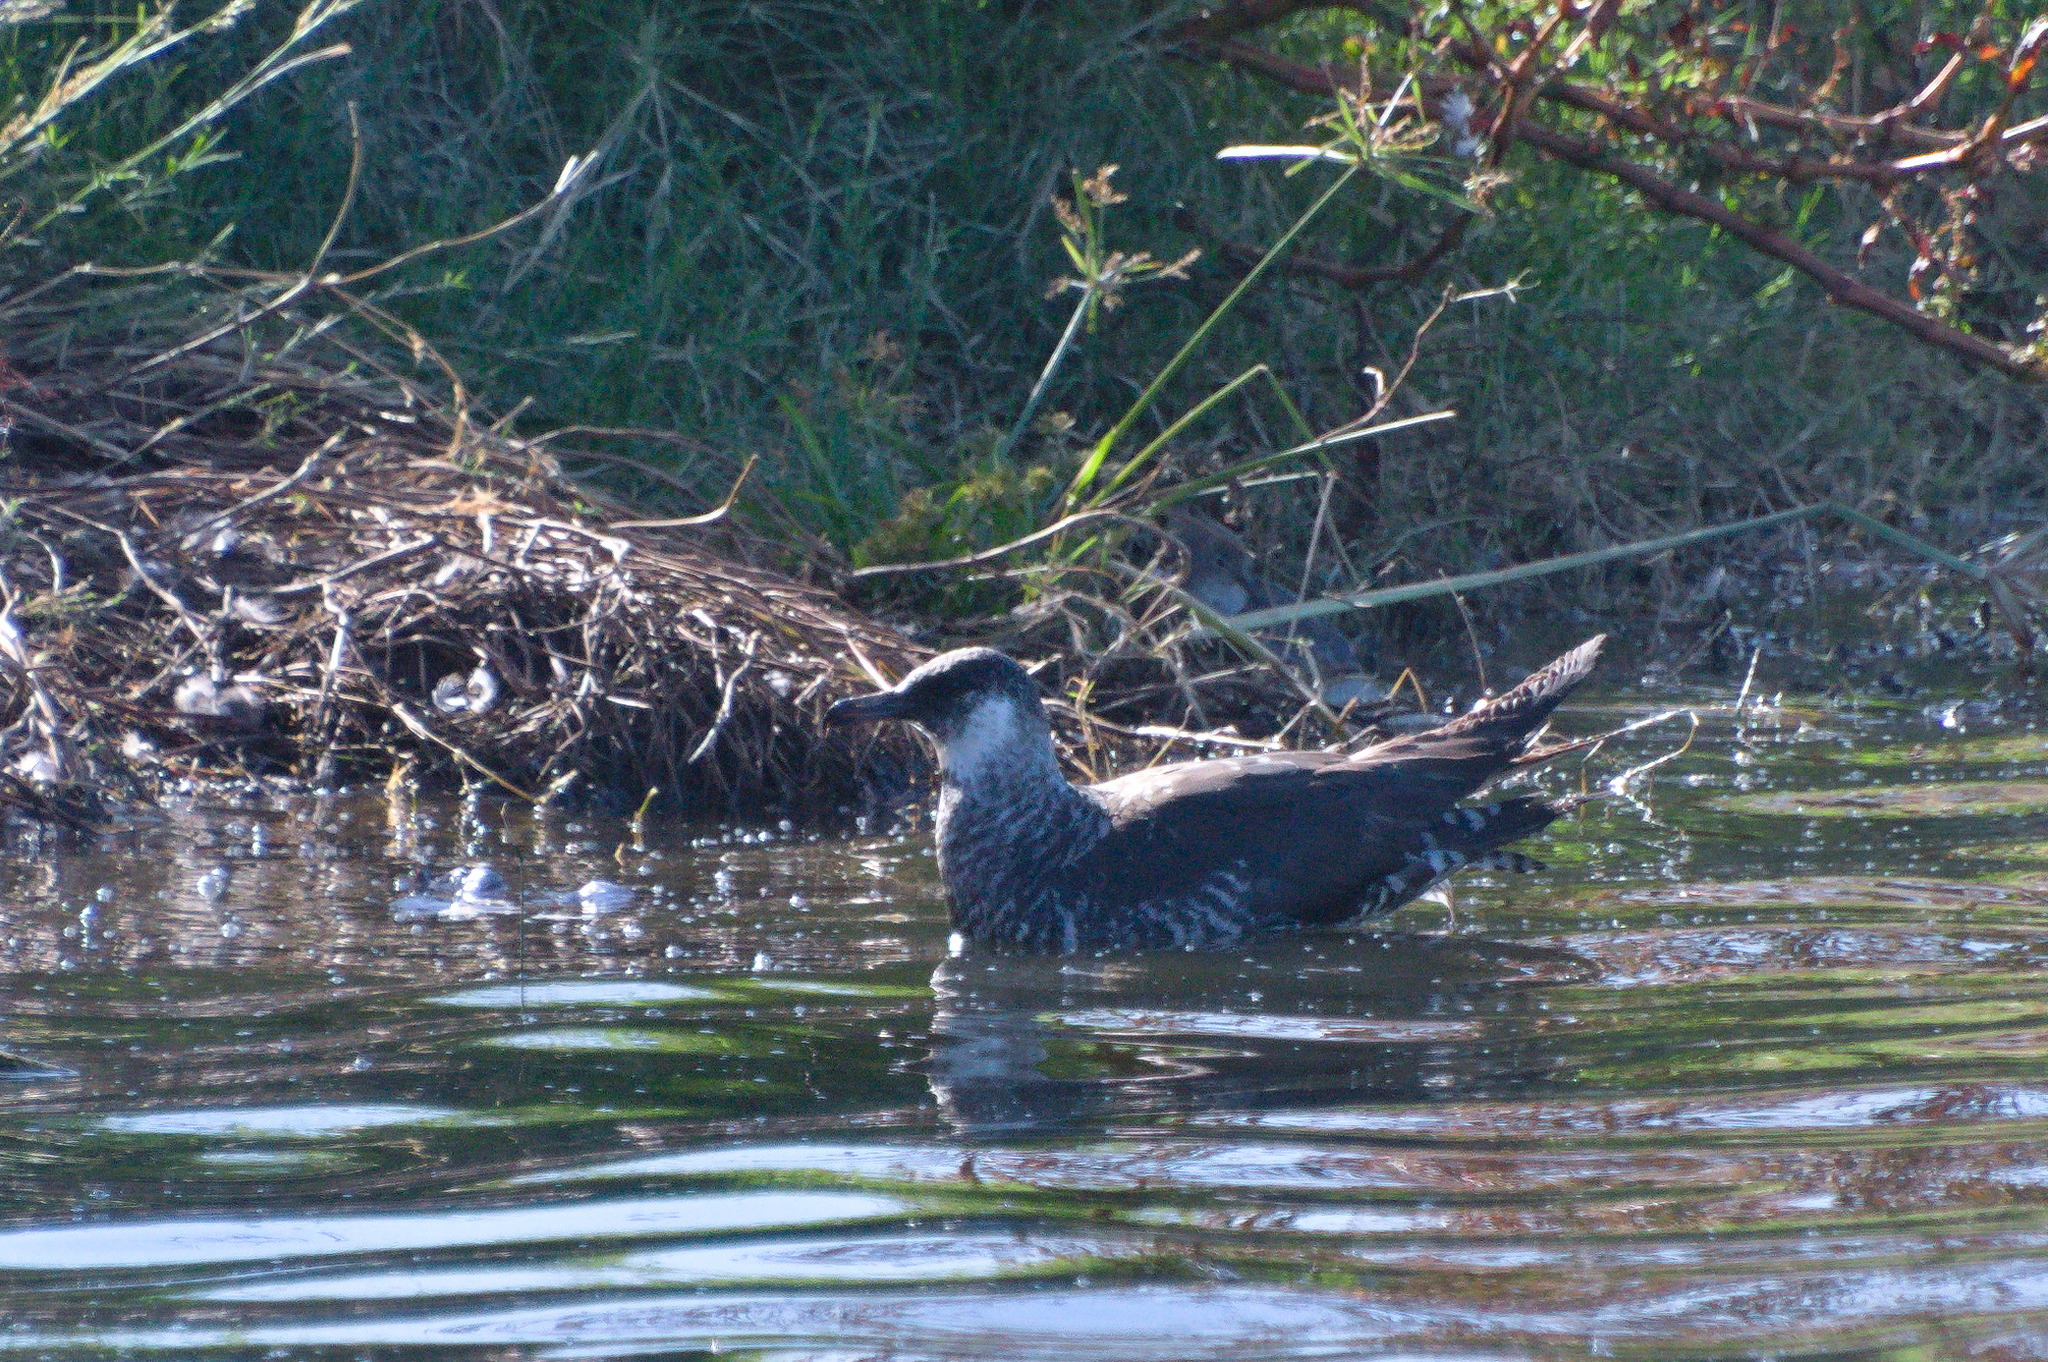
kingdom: Animalia
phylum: Chordata
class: Aves
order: Charadriiformes
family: Stercorariidae
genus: Stercorarius
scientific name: Stercorarius pomarinus
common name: Pomarine jaeger
